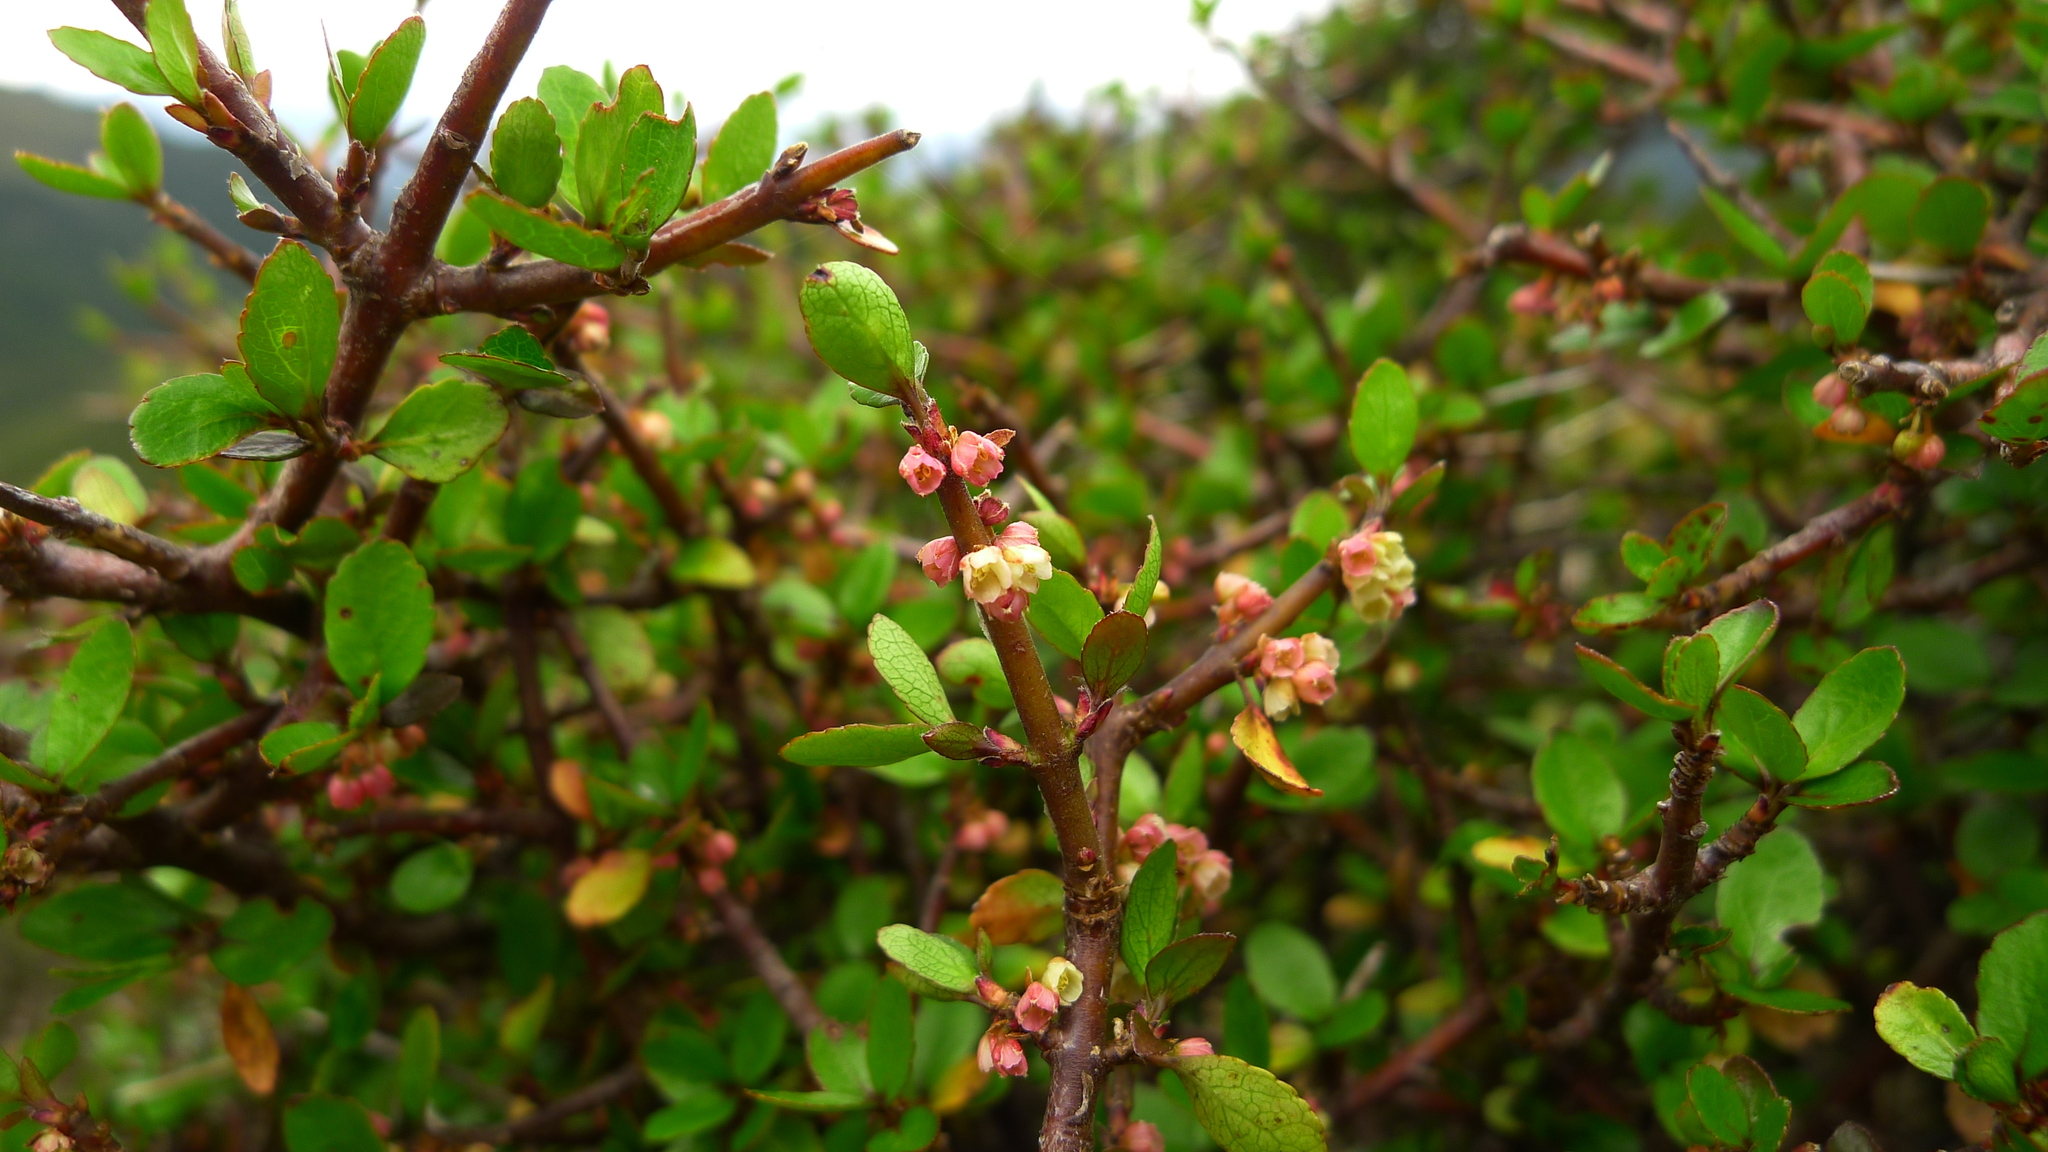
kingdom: Plantae
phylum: Tracheophyta
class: Magnoliopsida
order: Oxalidales
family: Elaeocarpaceae
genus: Aristotelia
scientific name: Aristotelia fruticosa
